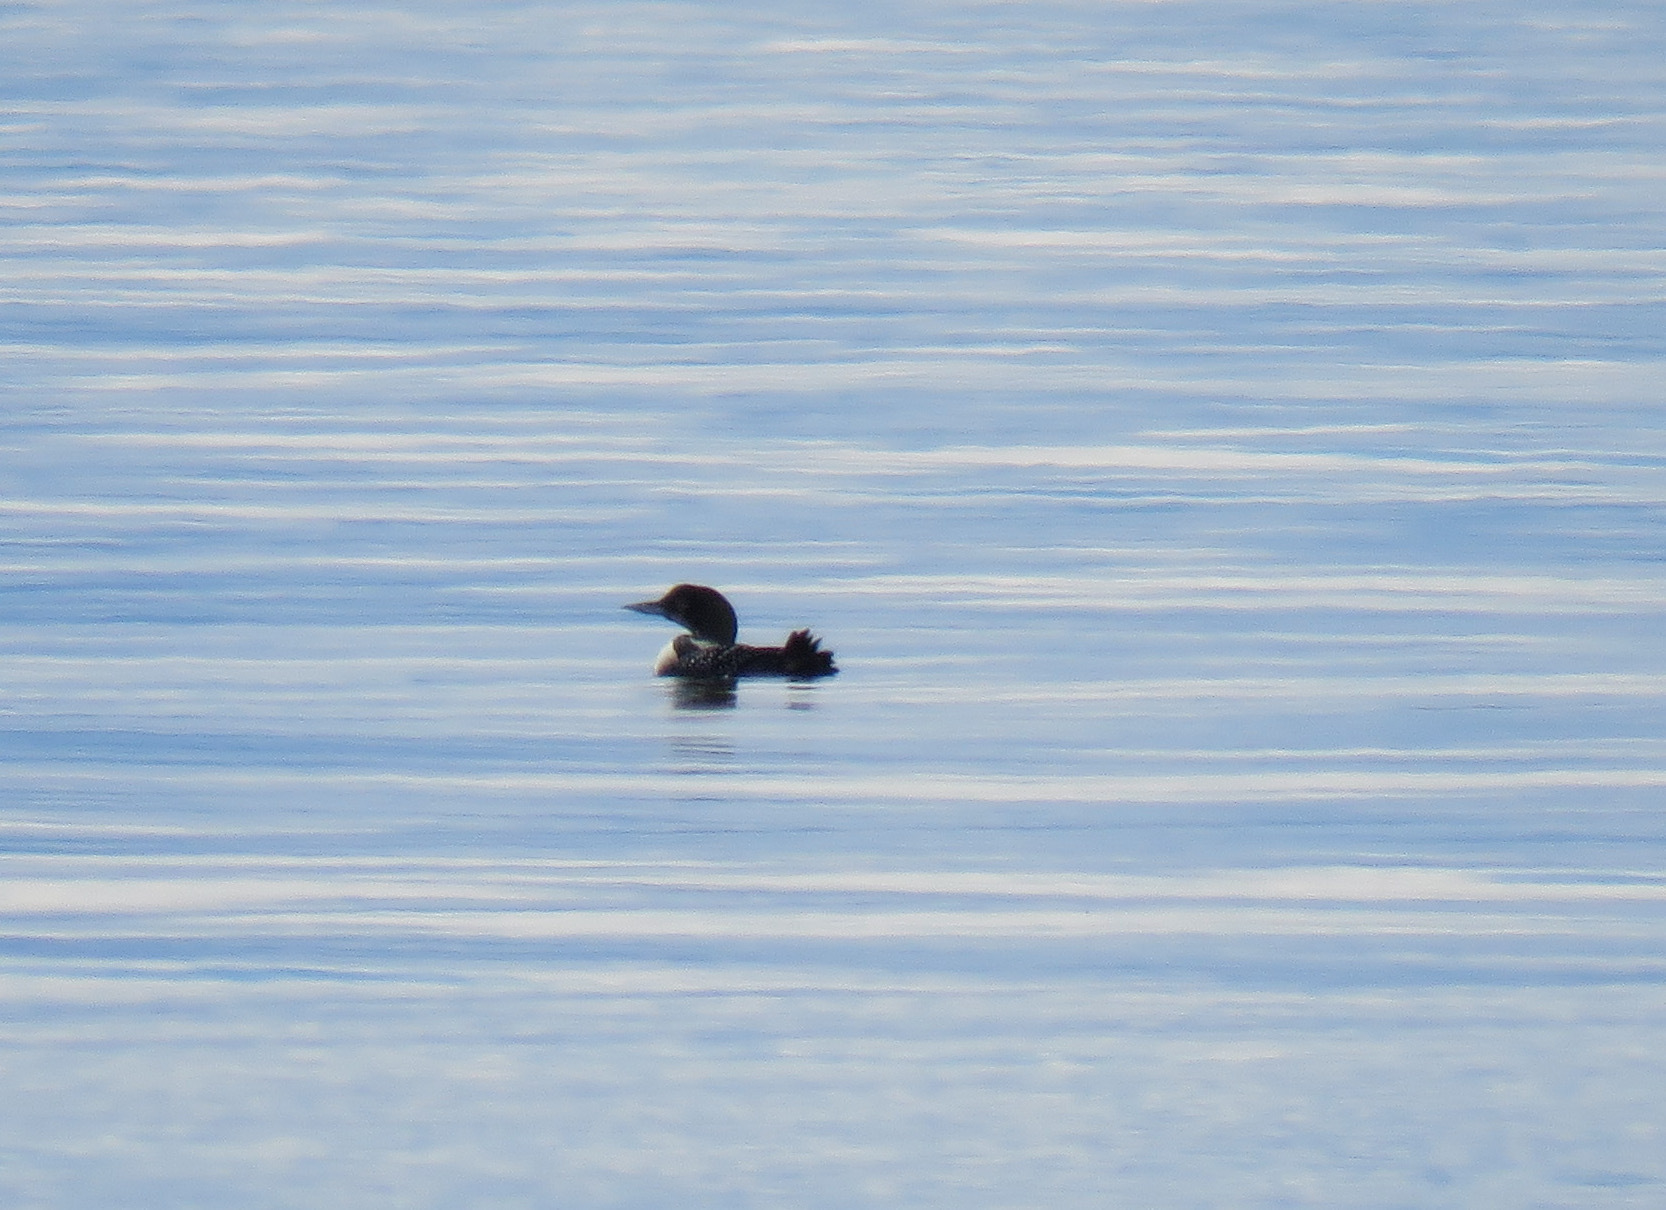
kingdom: Animalia
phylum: Chordata
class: Aves
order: Gaviiformes
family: Gaviidae
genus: Gavia
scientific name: Gavia immer
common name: Common loon
